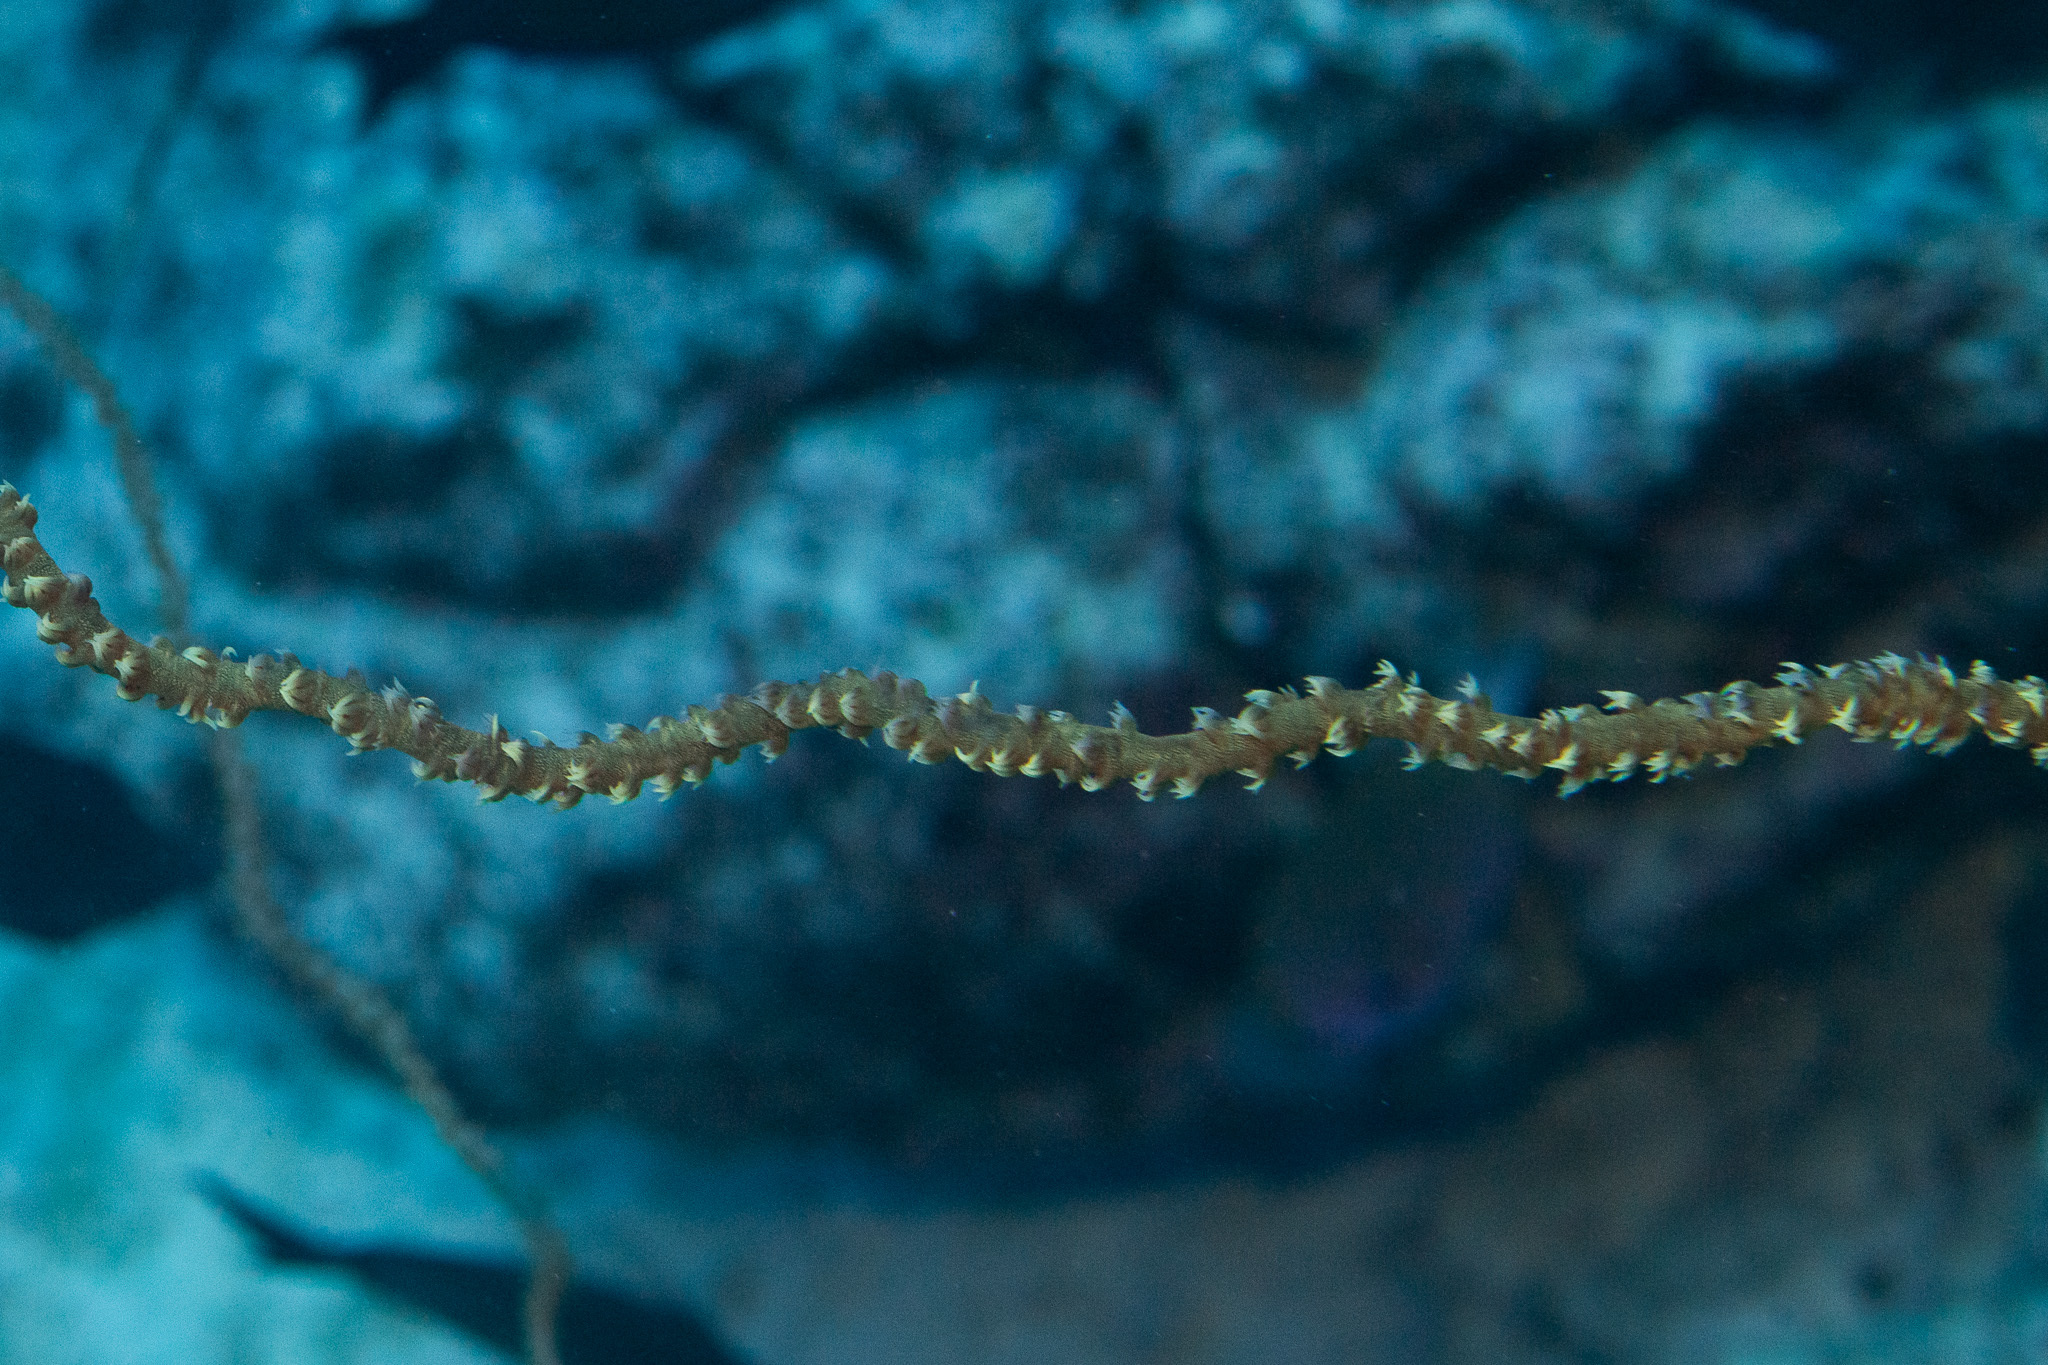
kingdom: Animalia
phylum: Cnidaria
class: Anthozoa
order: Antipatharia
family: Antipathidae
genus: Cirrhipathes
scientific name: Cirrhipathes anguina
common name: Whip coral
